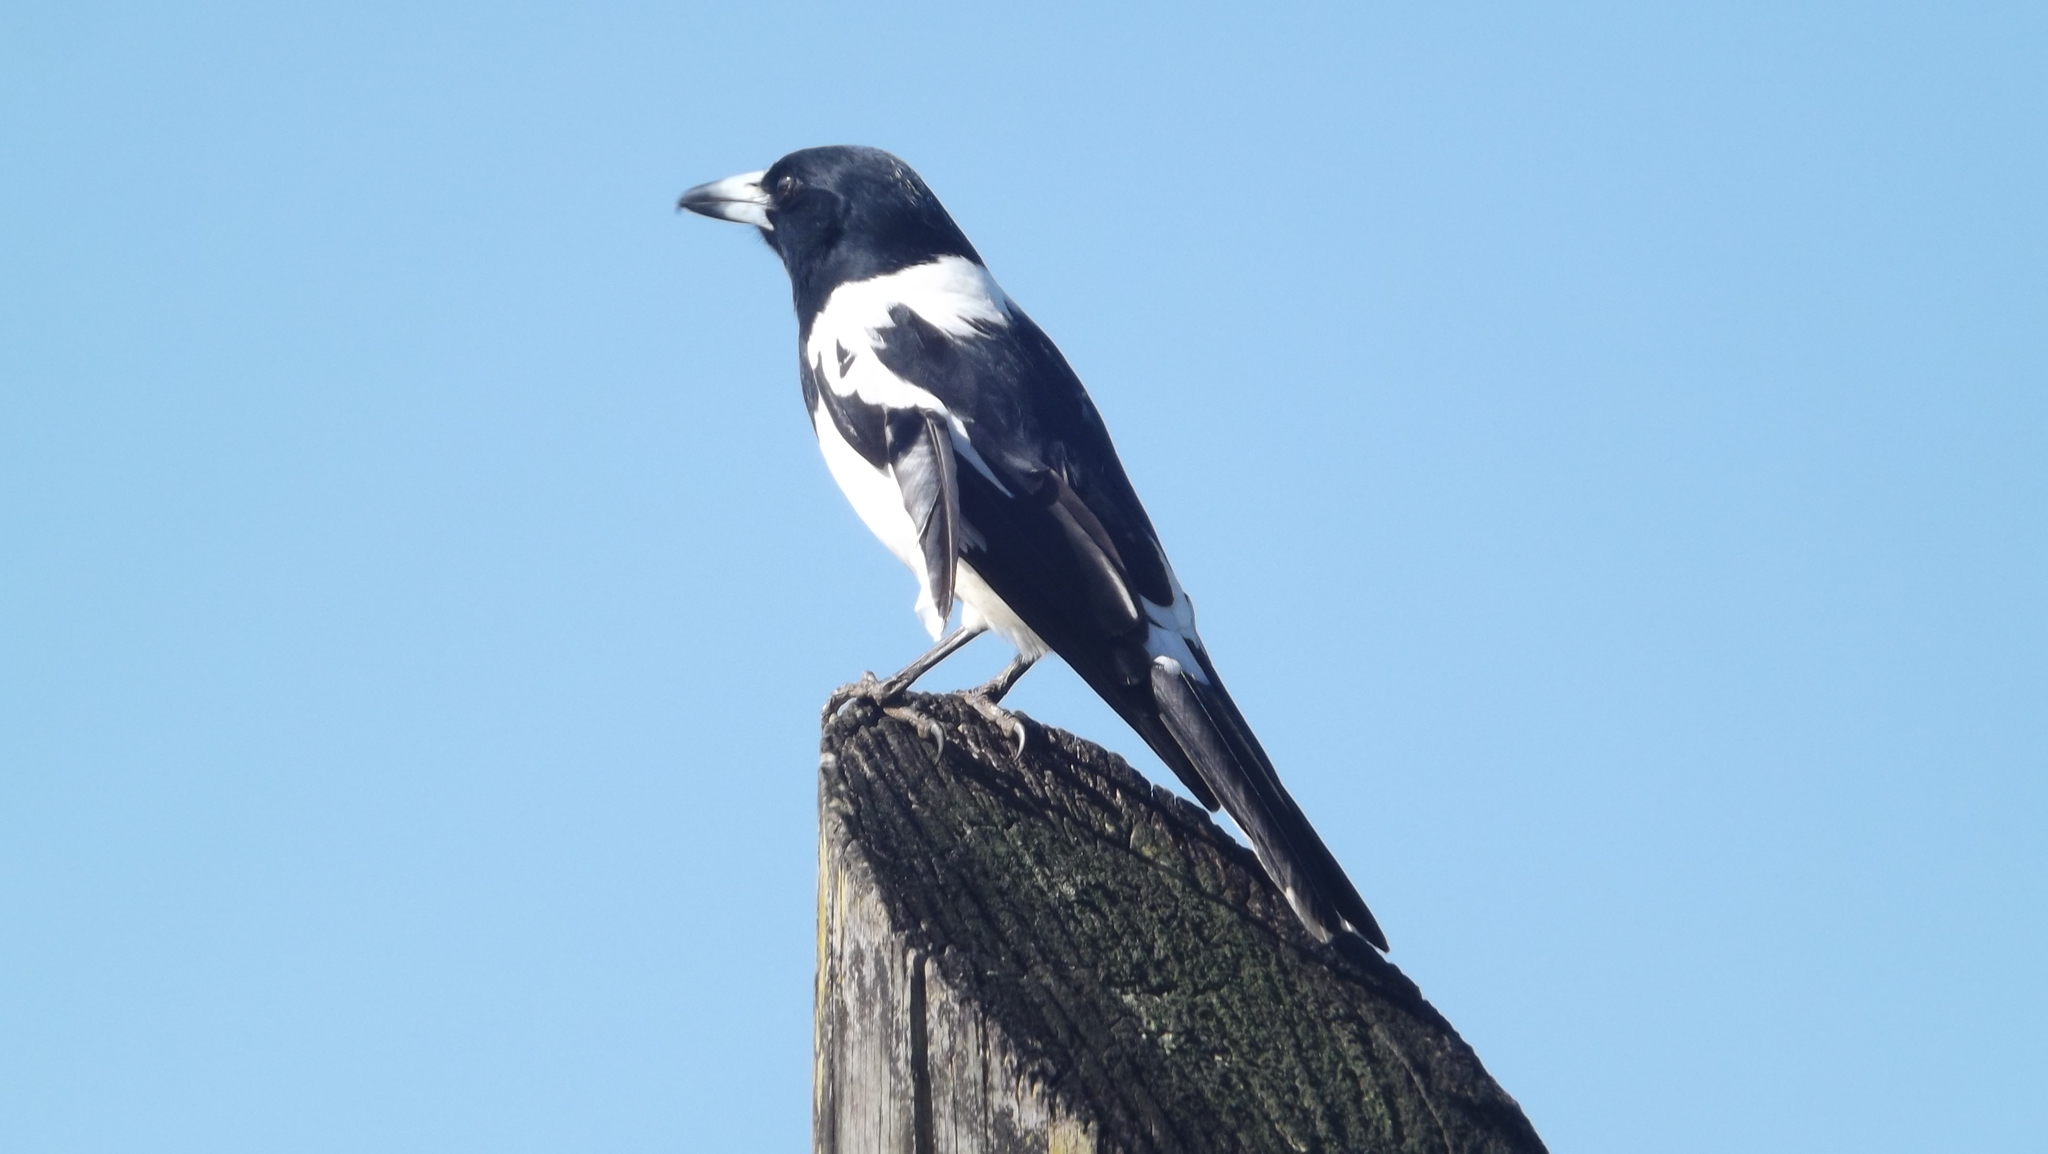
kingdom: Animalia
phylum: Chordata
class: Aves
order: Passeriformes
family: Cracticidae
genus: Cracticus
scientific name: Cracticus nigrogularis
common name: Pied butcherbird
